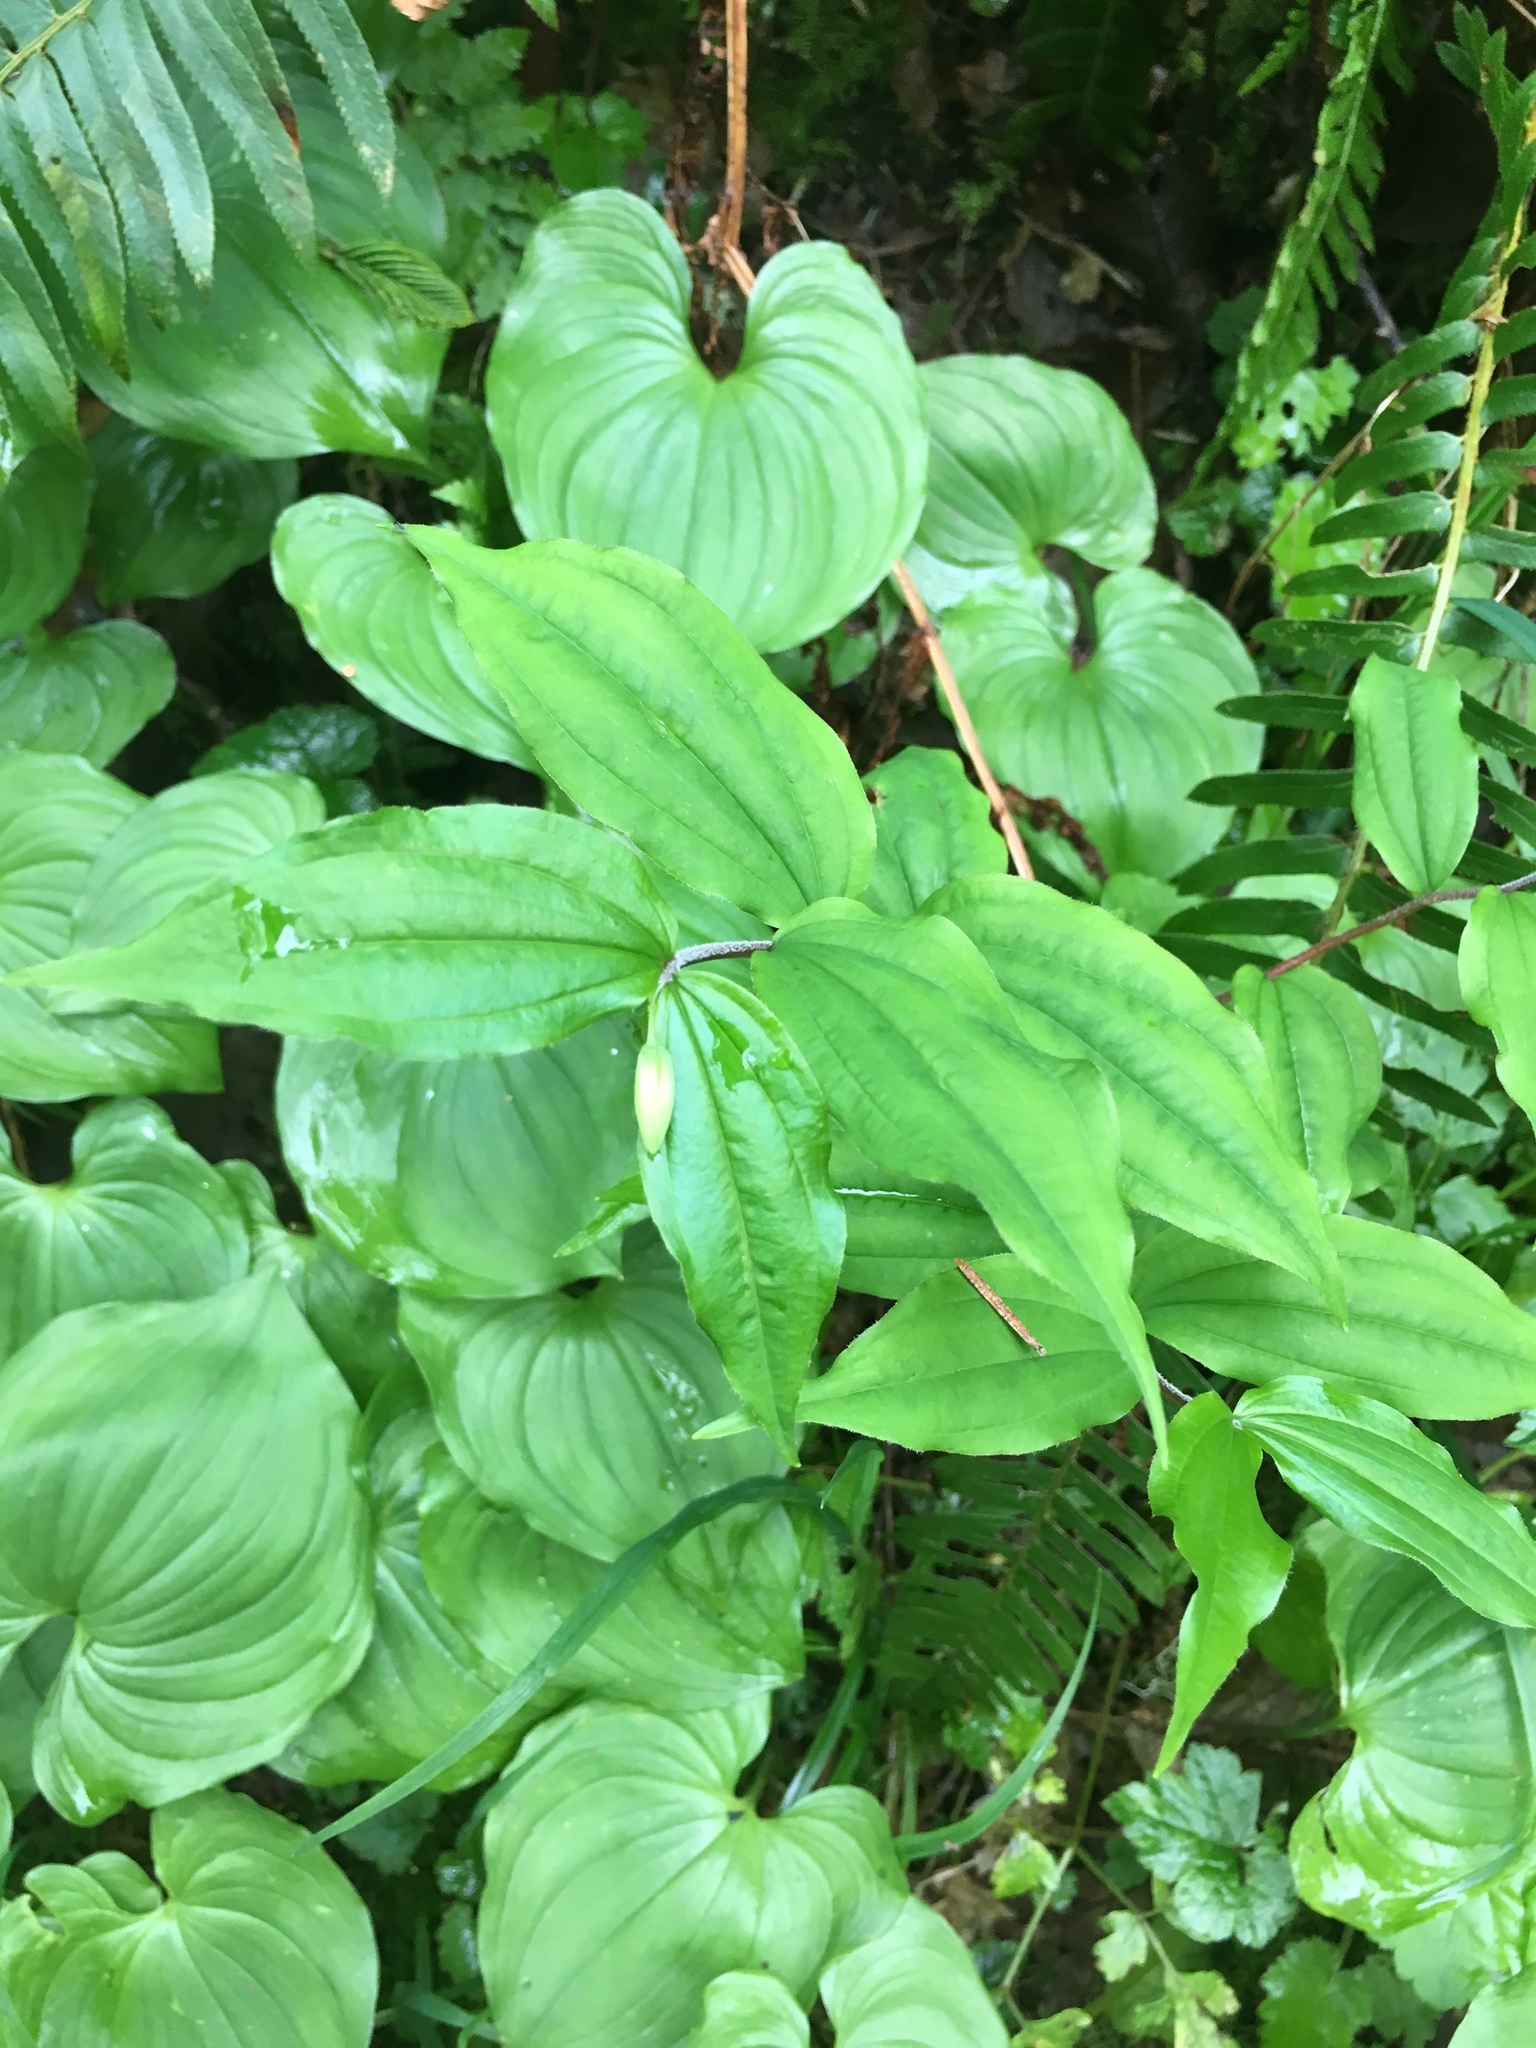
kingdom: Plantae
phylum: Tracheophyta
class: Liliopsida
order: Asparagales
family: Asparagaceae
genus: Maianthemum
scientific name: Maianthemum dilatatum
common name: False lily-of-the-valley
